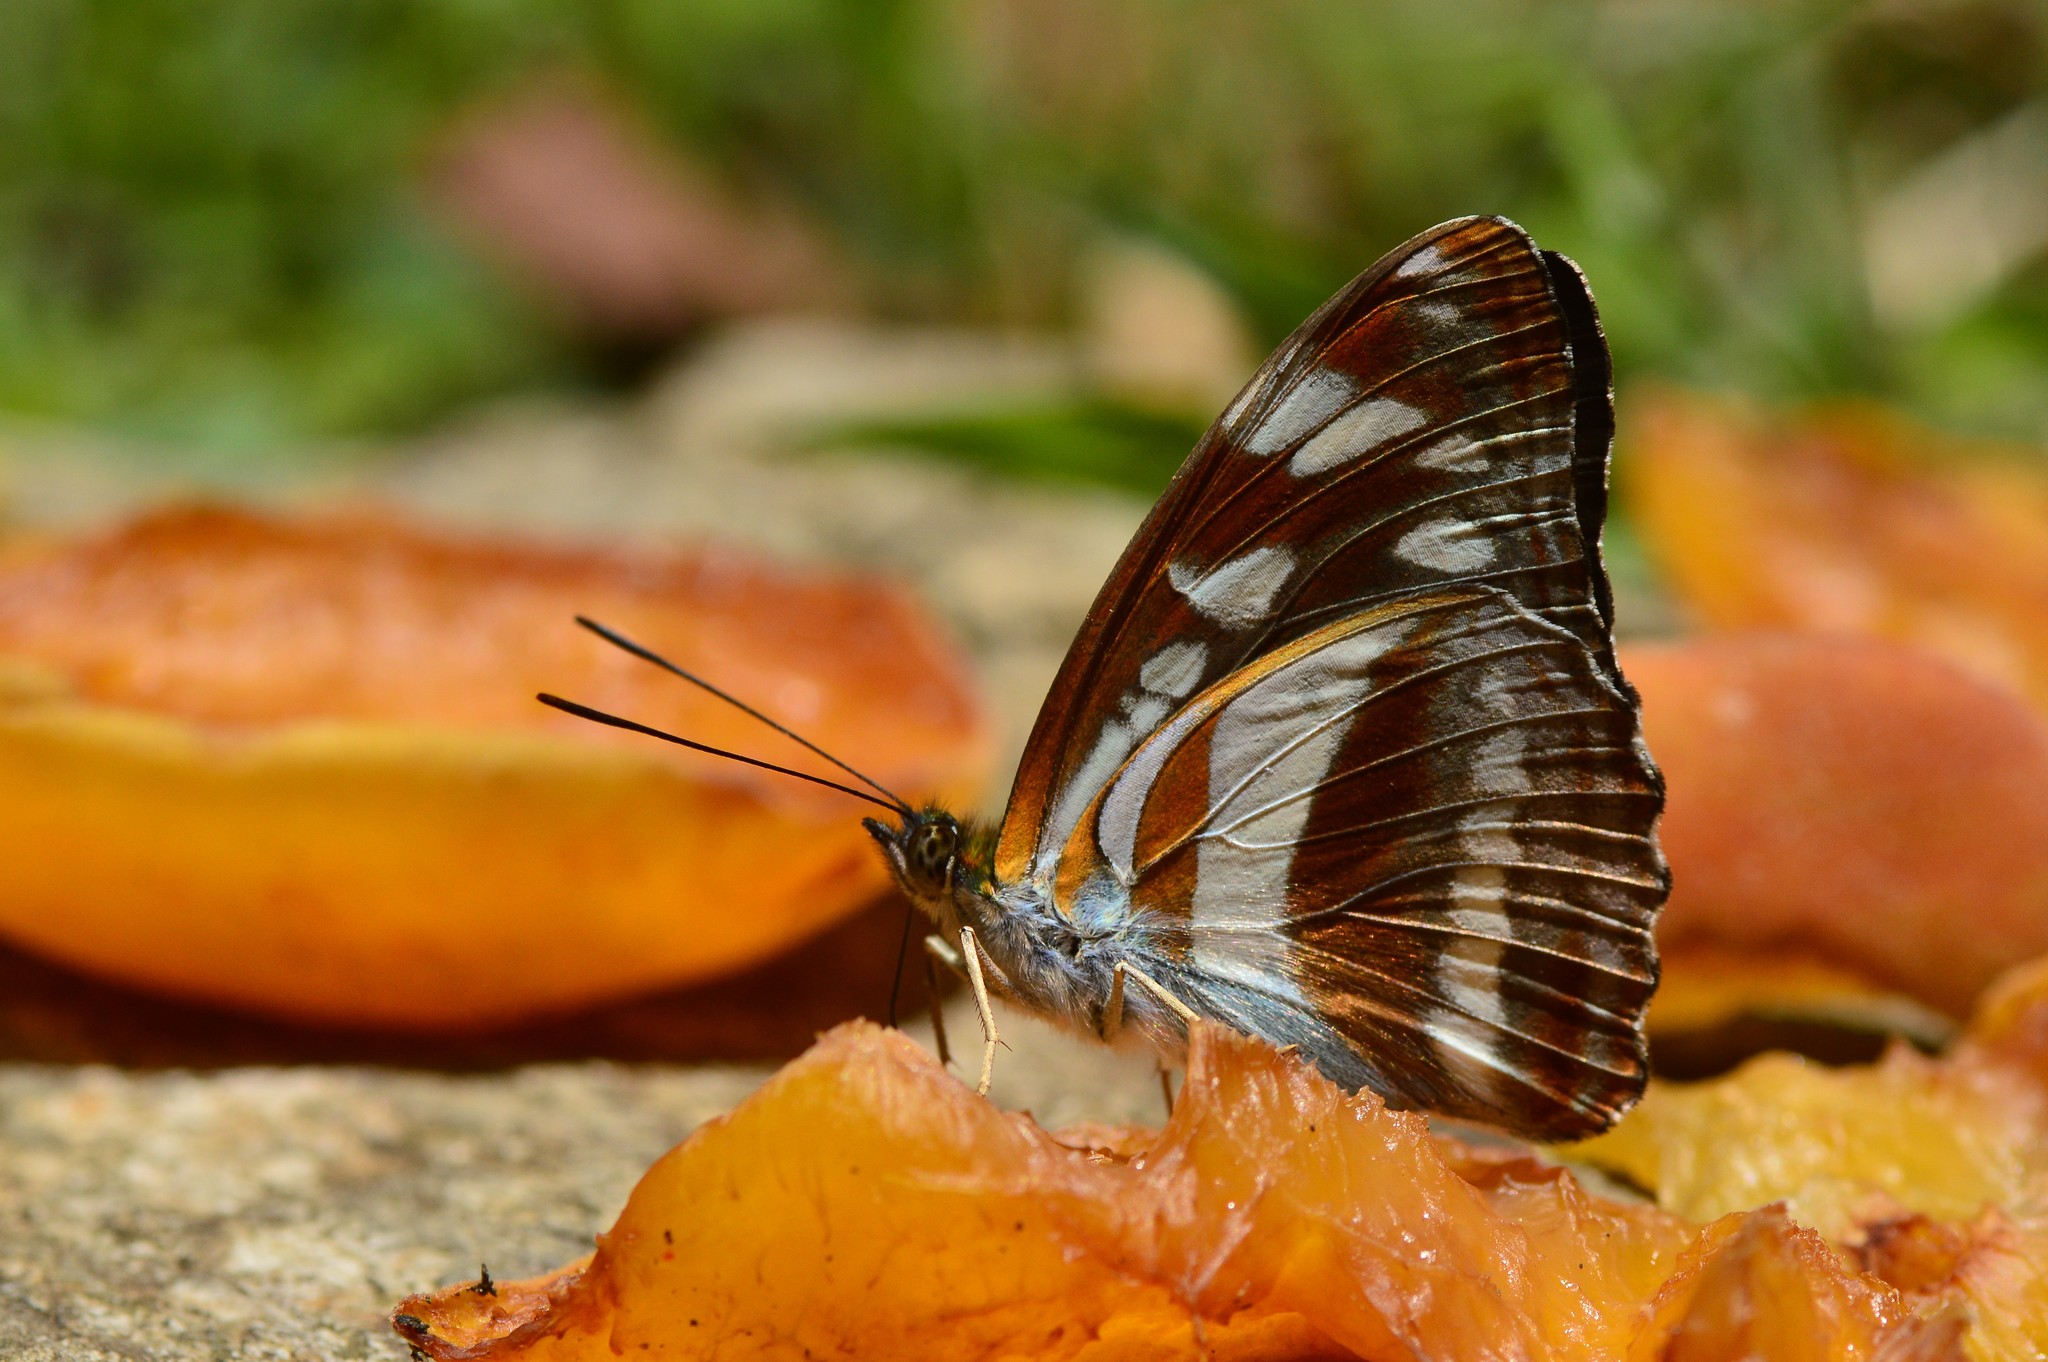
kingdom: Animalia
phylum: Arthropoda
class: Insecta
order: Lepidoptera
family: Nymphalidae
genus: Parathyma
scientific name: Parathyma opalina
